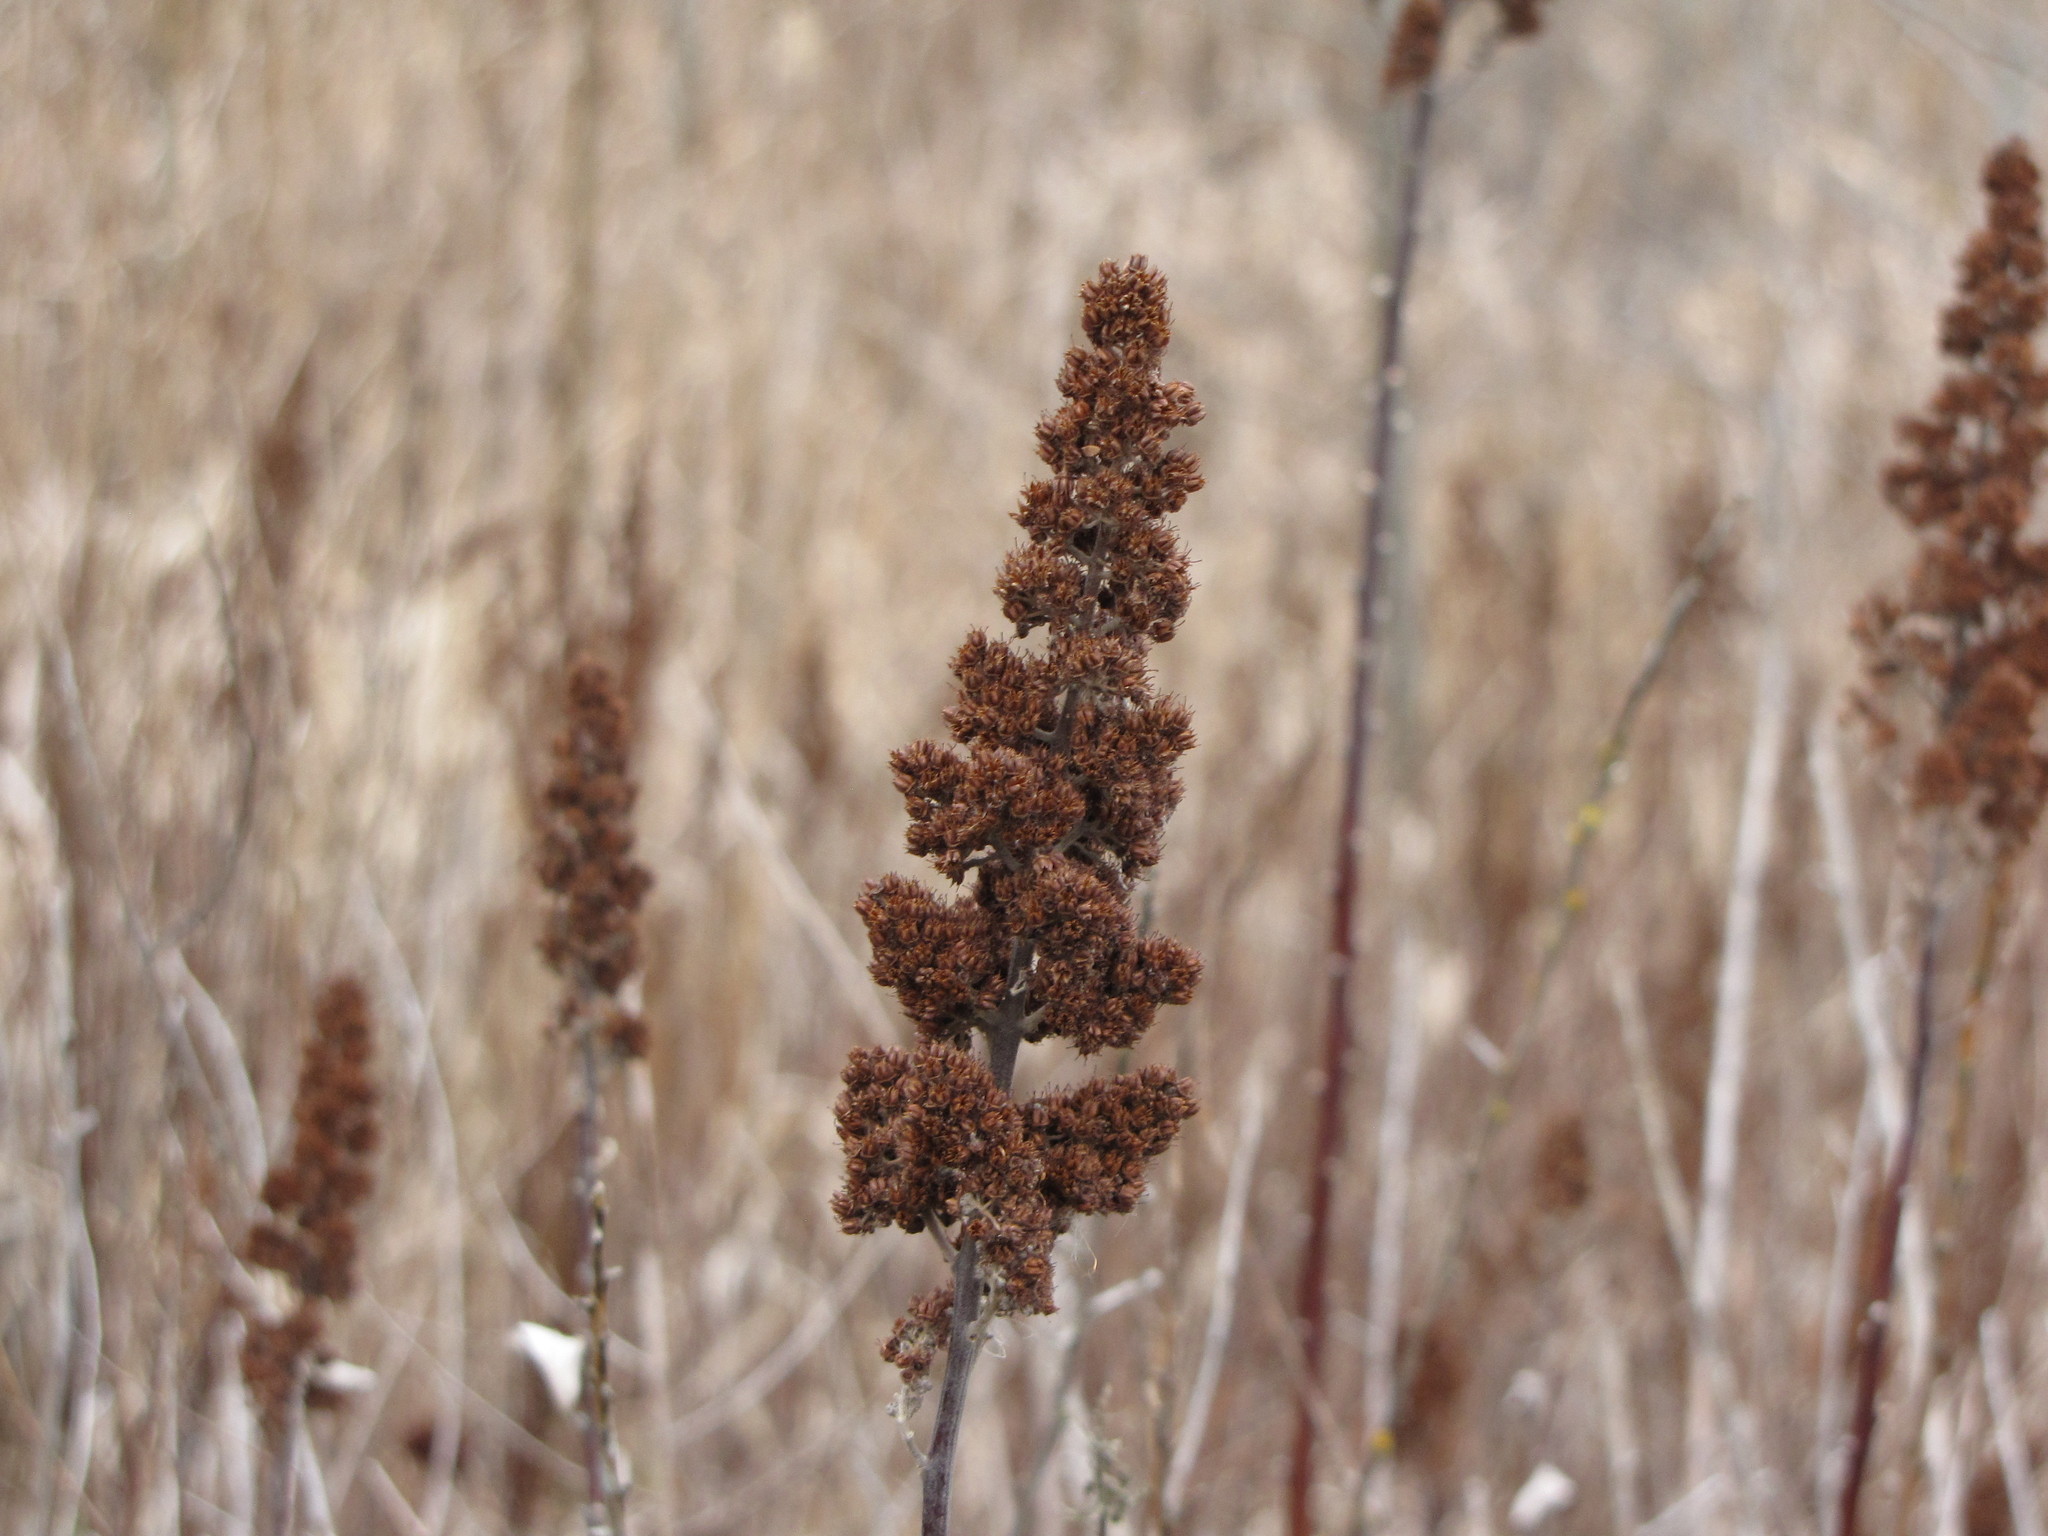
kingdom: Plantae
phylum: Tracheophyta
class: Magnoliopsida
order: Rosales
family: Rosaceae
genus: Spiraea
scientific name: Spiraea douglasii
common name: Steeplebush
